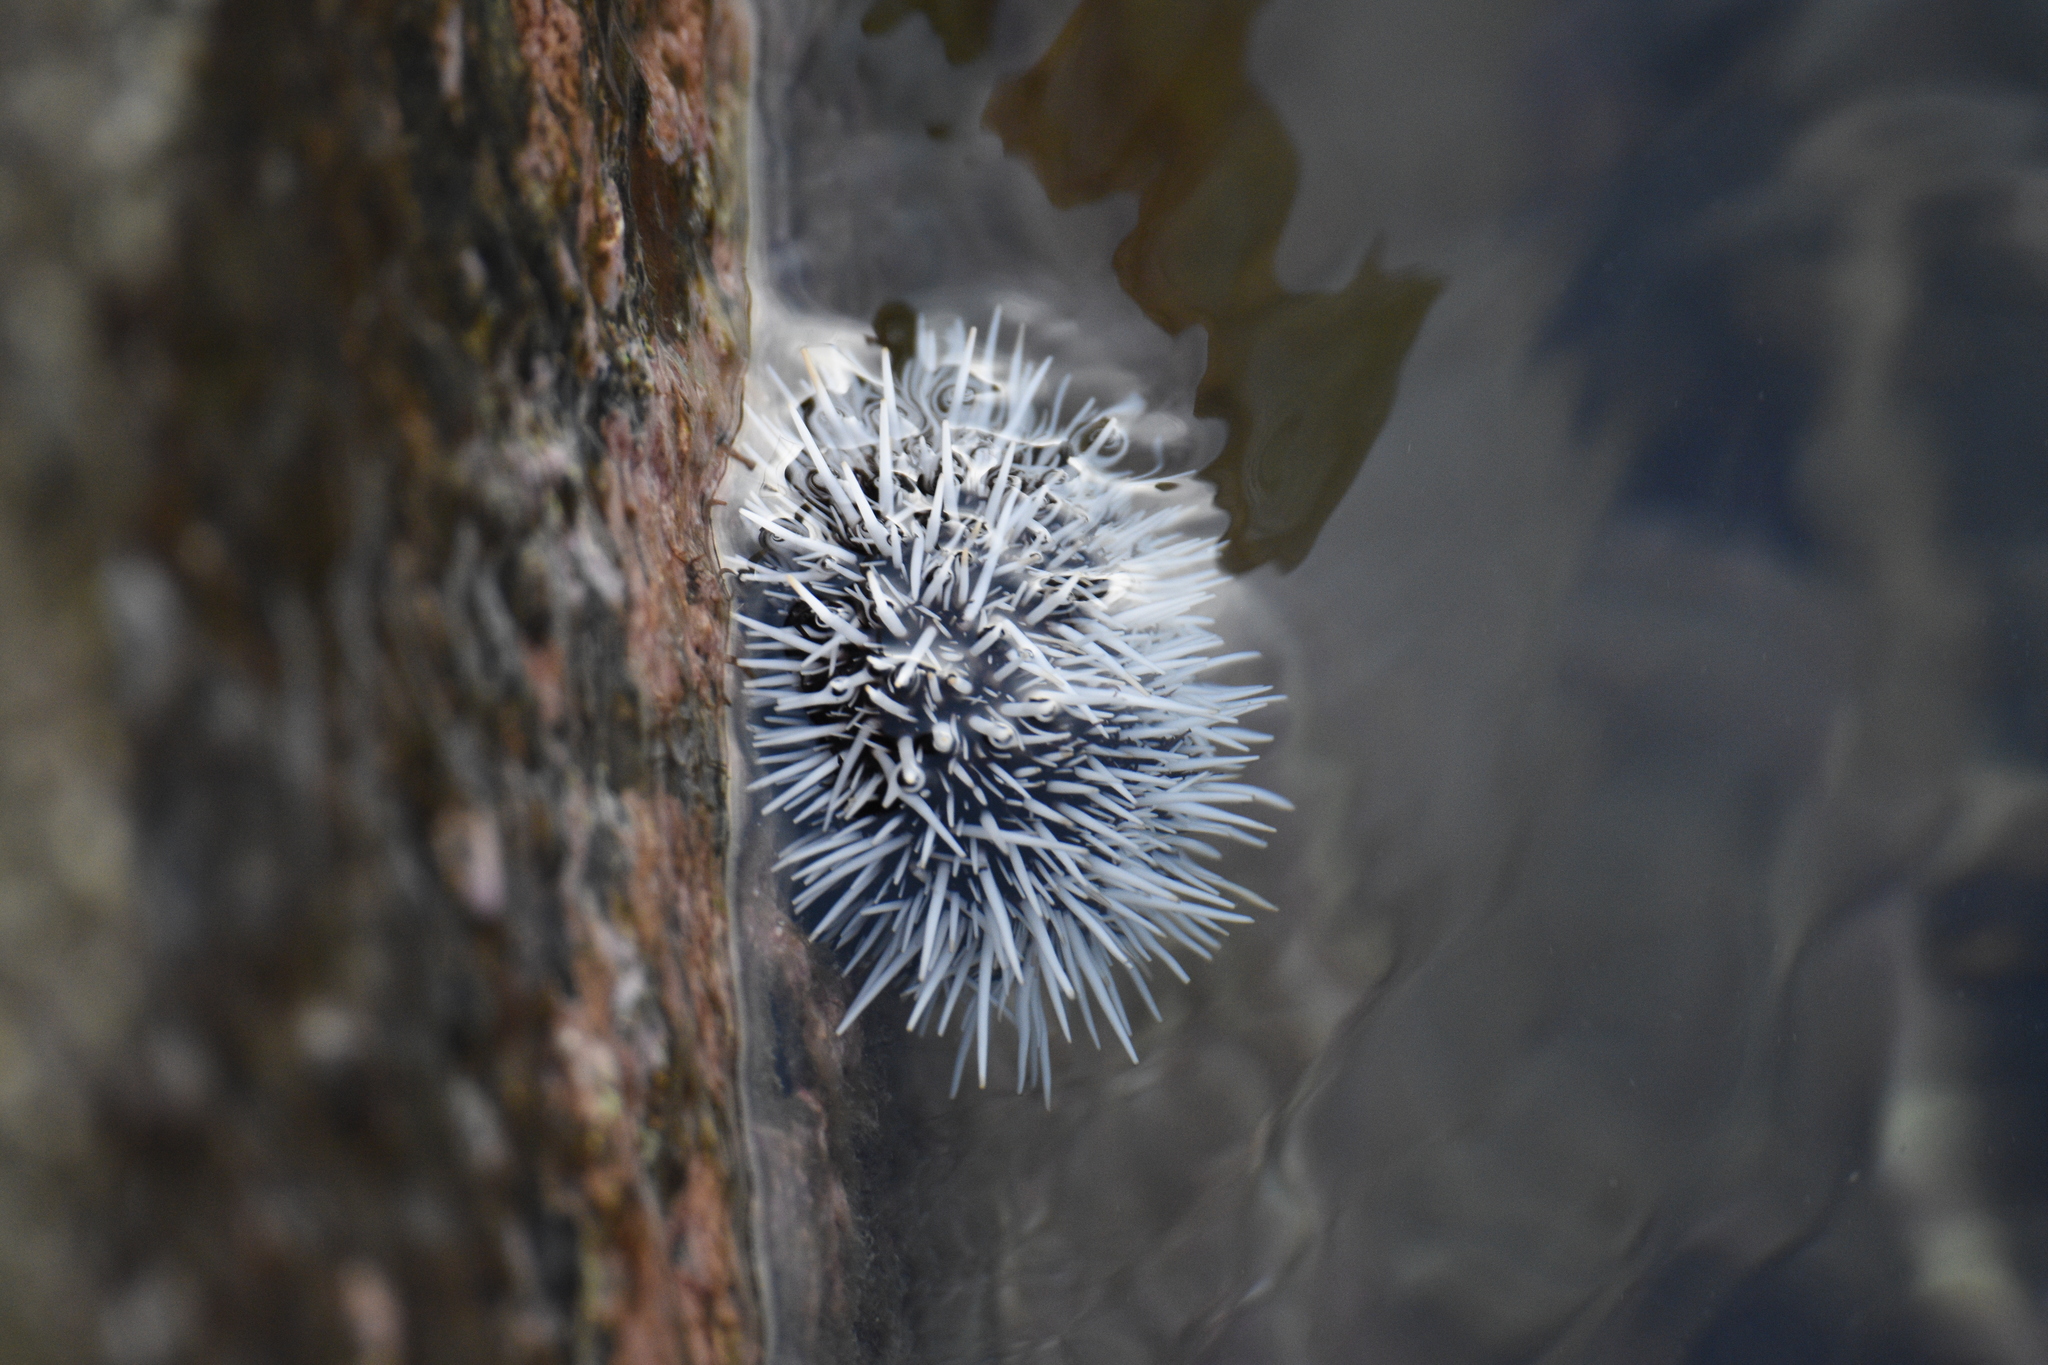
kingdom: Animalia
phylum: Echinodermata
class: Echinoidea
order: Camarodonta
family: Toxopneustidae
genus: Tripneustes
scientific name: Tripneustes ventricosus
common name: West indian sea egg
